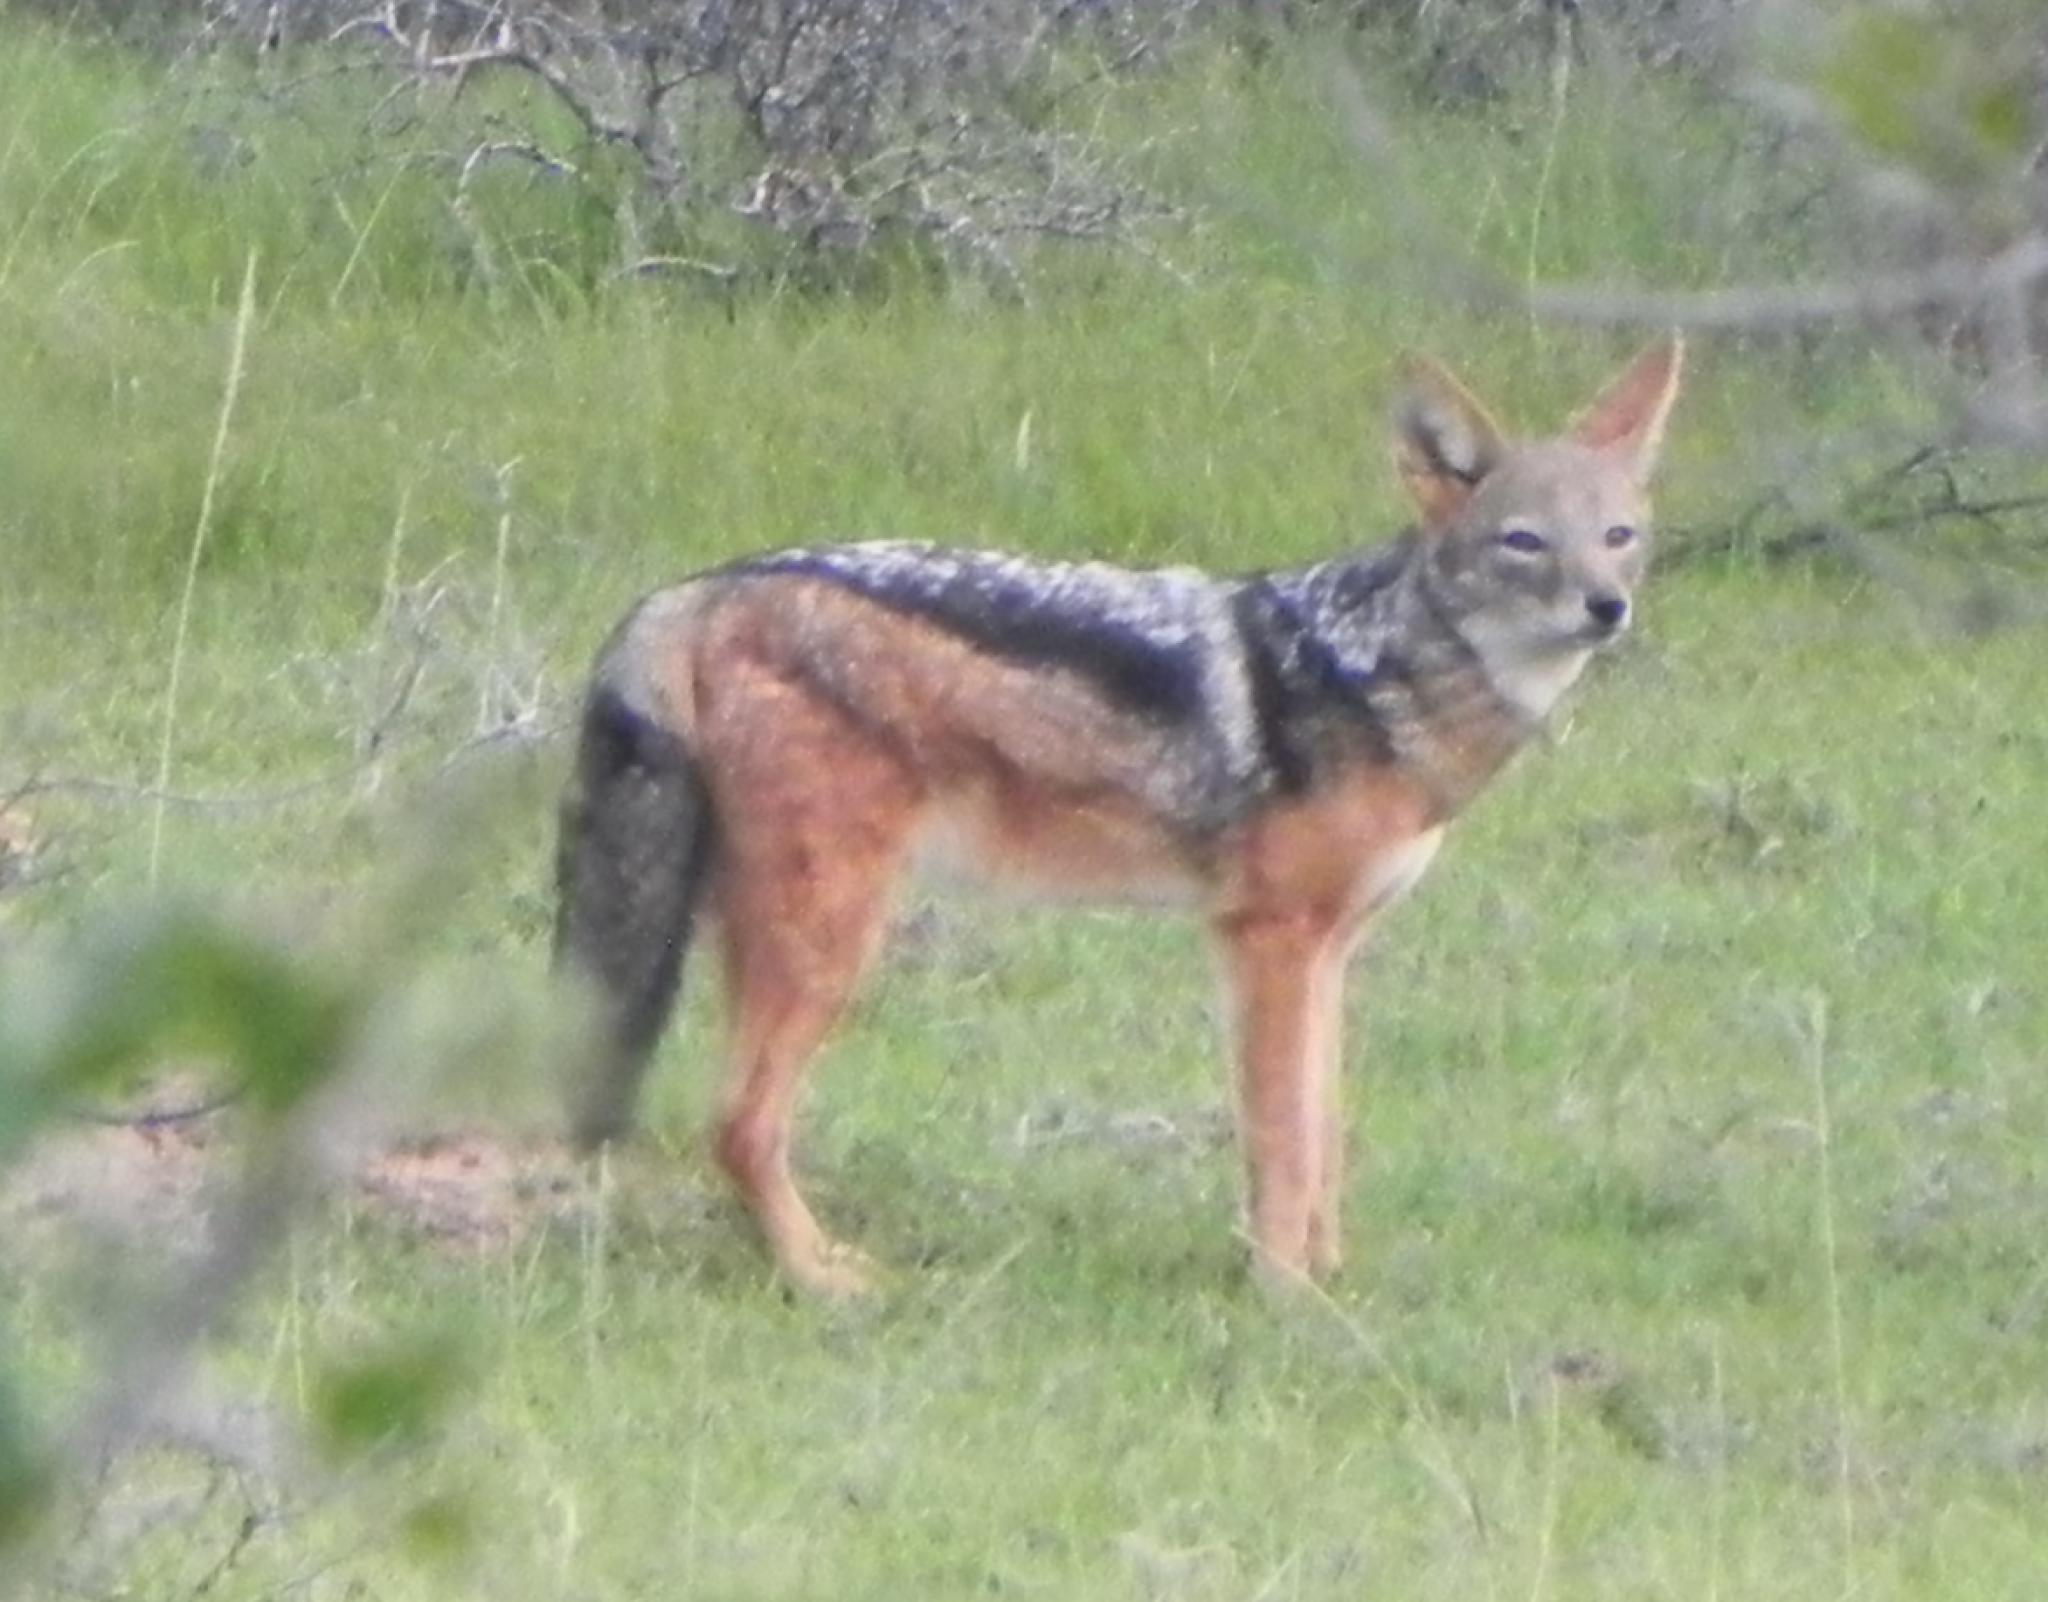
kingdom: Animalia
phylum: Chordata
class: Mammalia
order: Carnivora
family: Canidae
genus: Lupulella
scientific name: Lupulella
